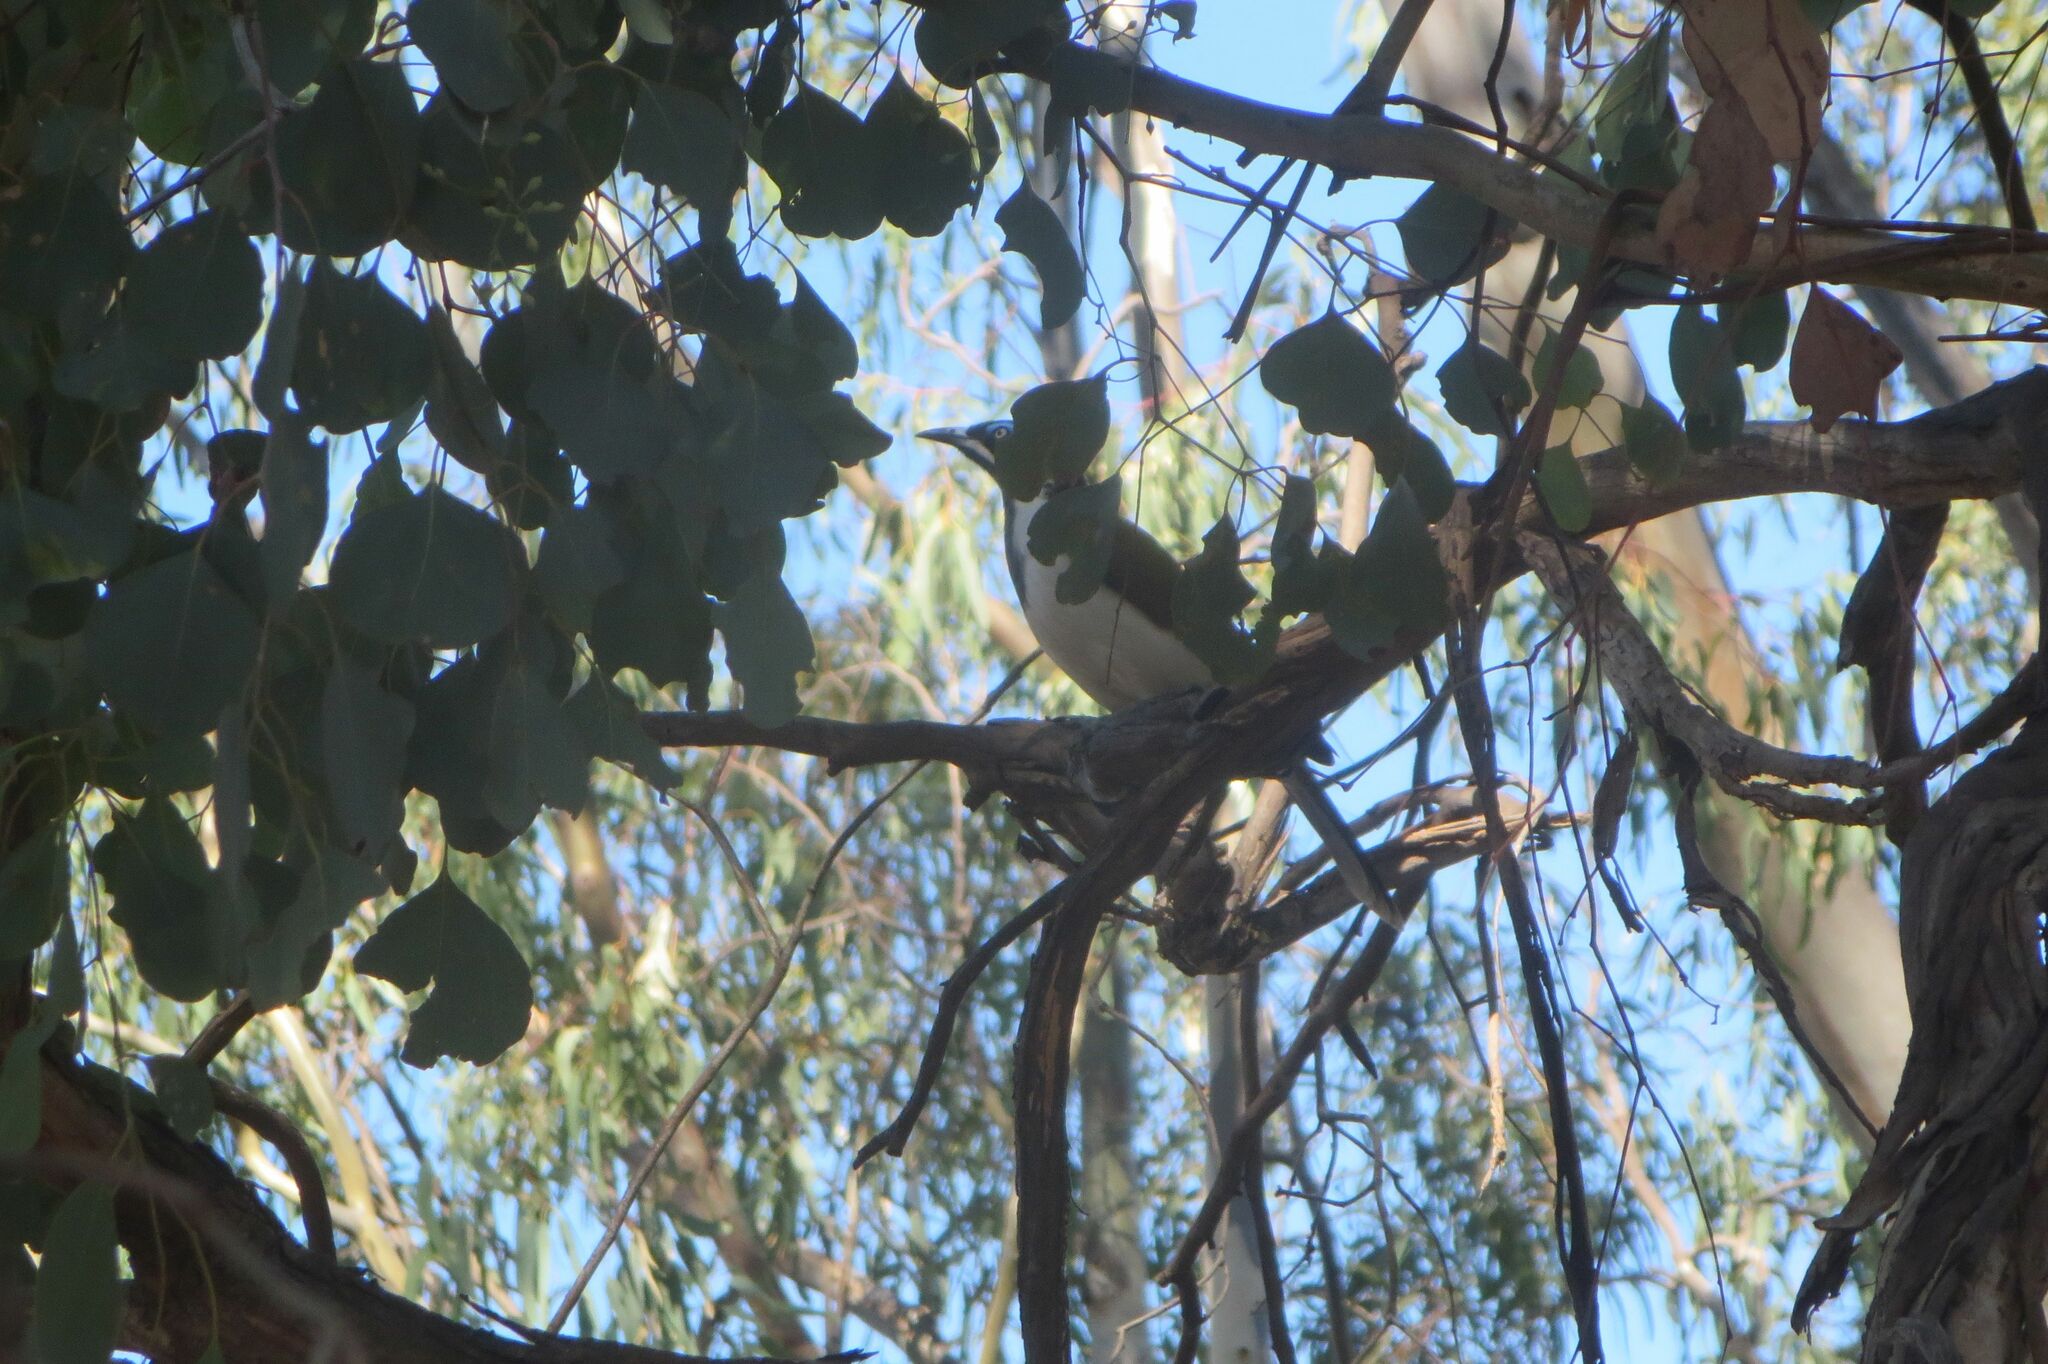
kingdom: Animalia
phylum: Chordata
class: Aves
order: Passeriformes
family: Meliphagidae
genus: Entomyzon
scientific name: Entomyzon cyanotis
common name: Blue-faced honeyeater
